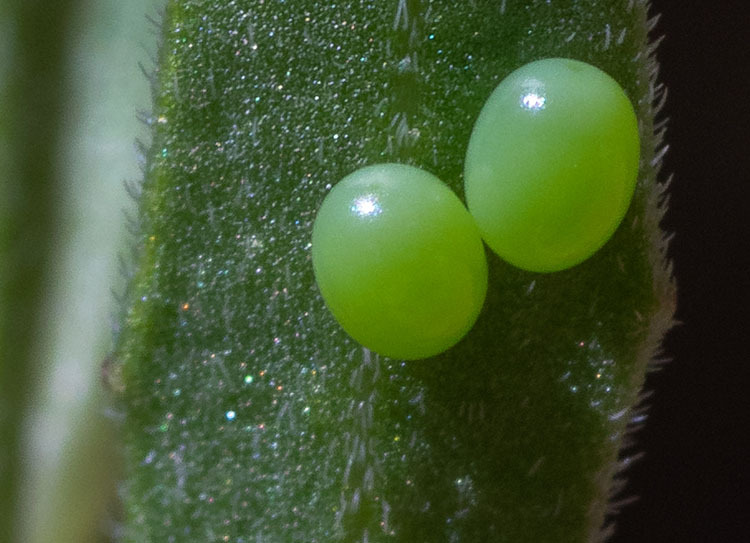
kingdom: Animalia
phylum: Arthropoda
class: Insecta
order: Lepidoptera
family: Sphingidae
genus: Proserpinus
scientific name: Proserpinus clarkiae
